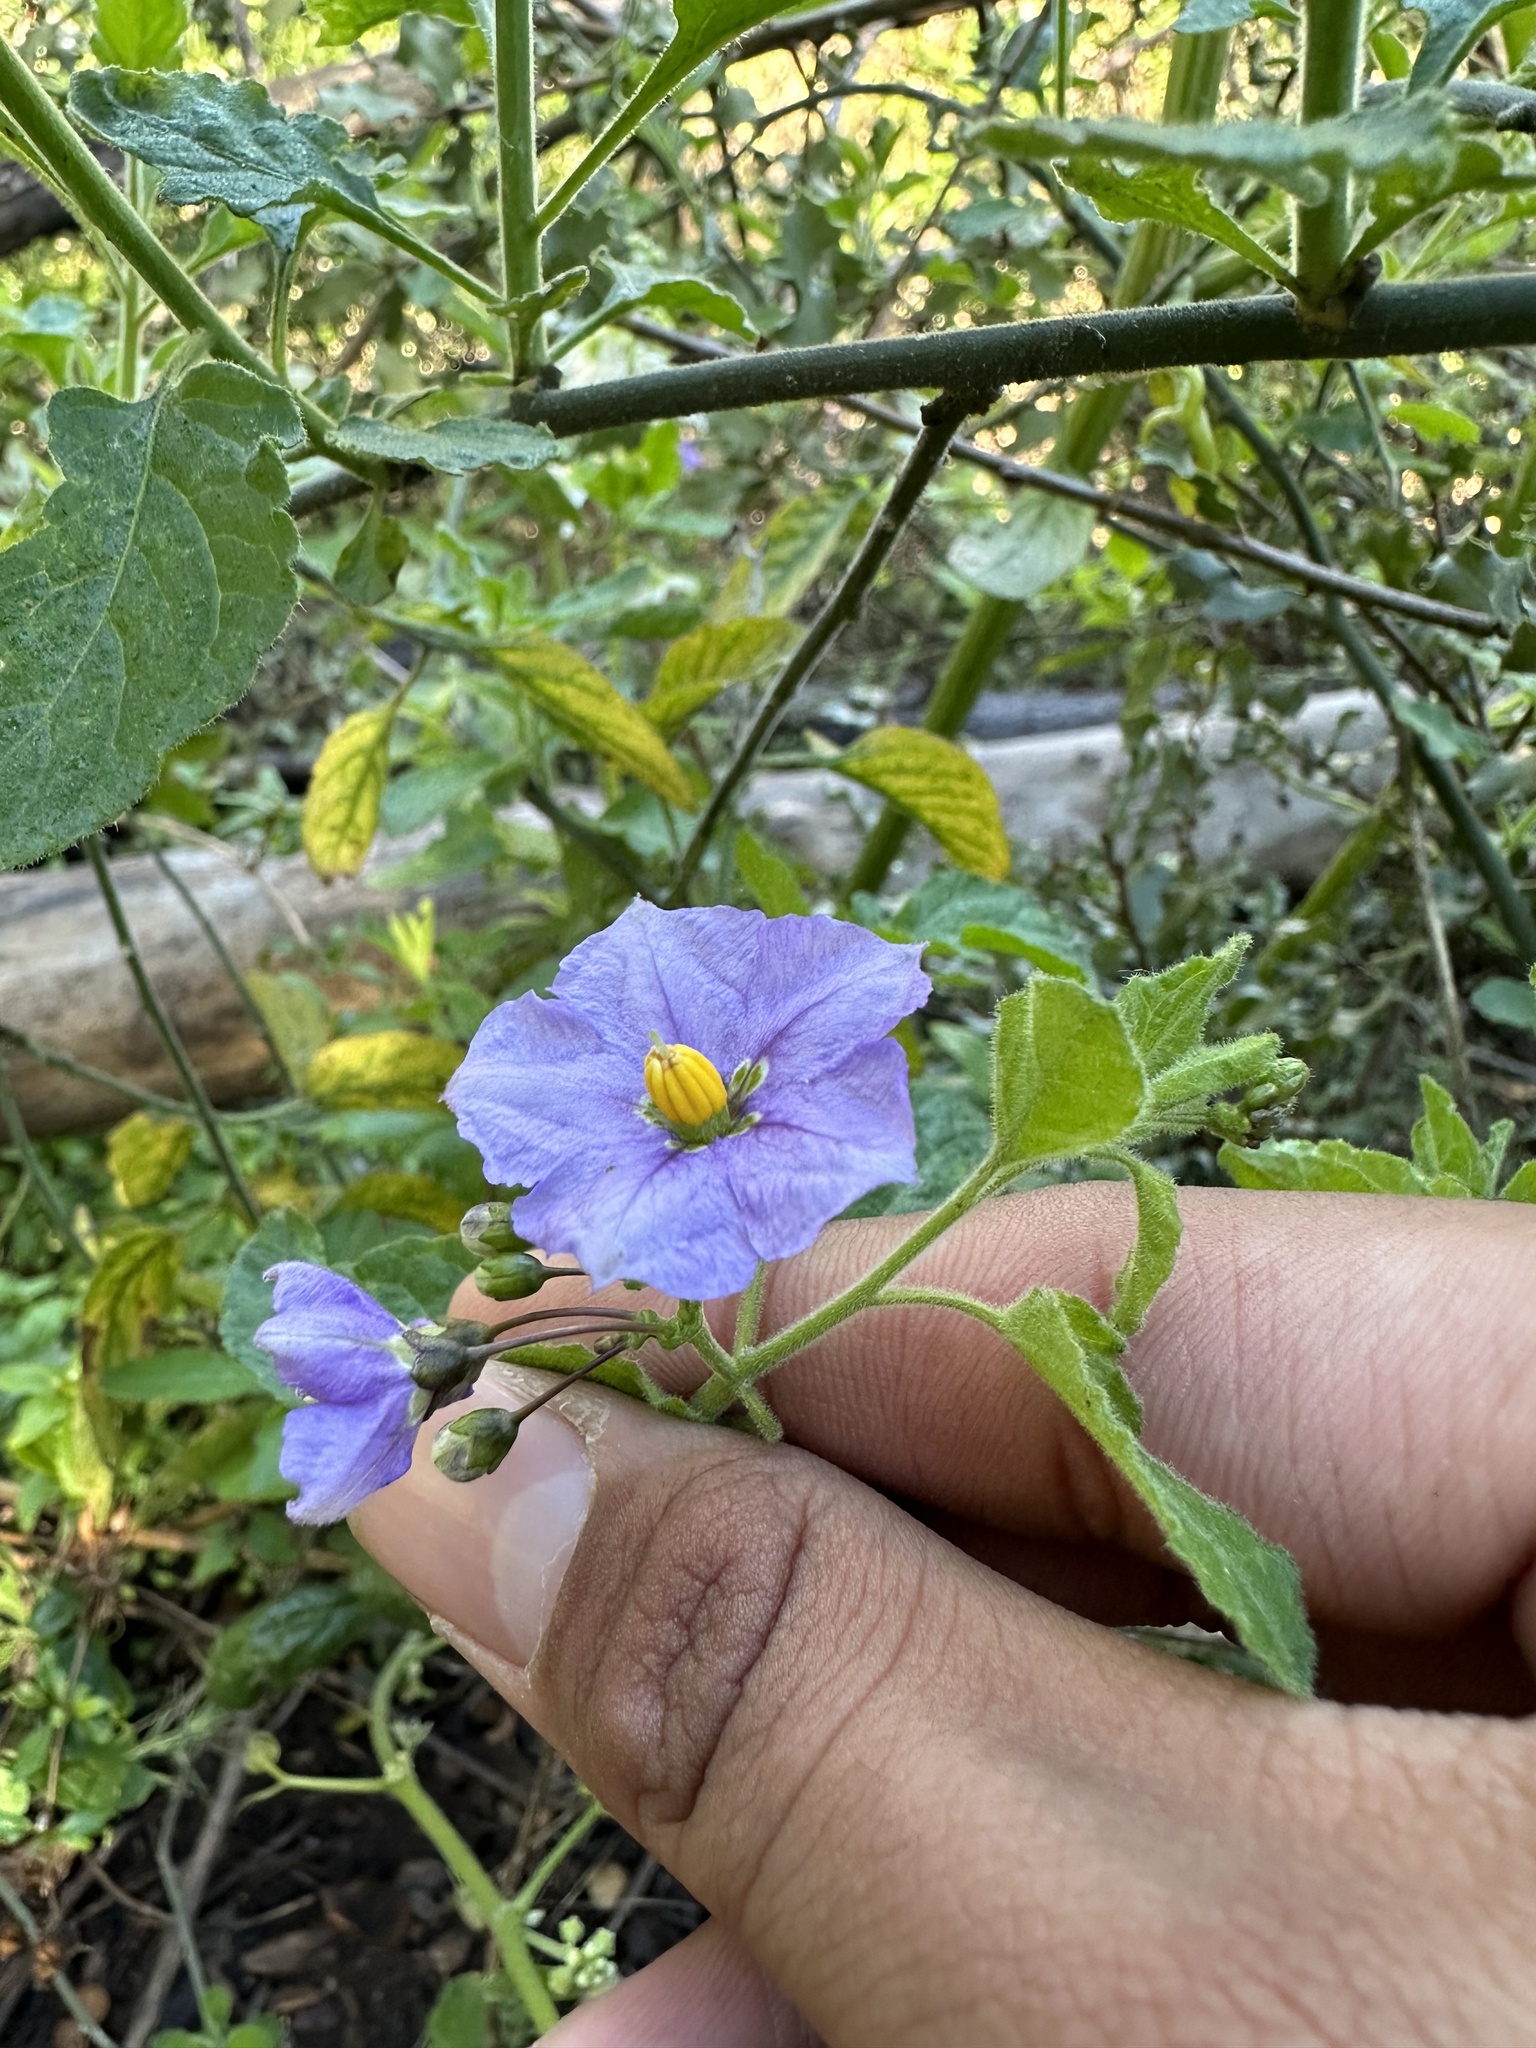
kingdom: Plantae
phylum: Tracheophyta
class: Magnoliopsida
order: Solanales
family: Solanaceae
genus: Solanum
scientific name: Solanum umbelliferum
